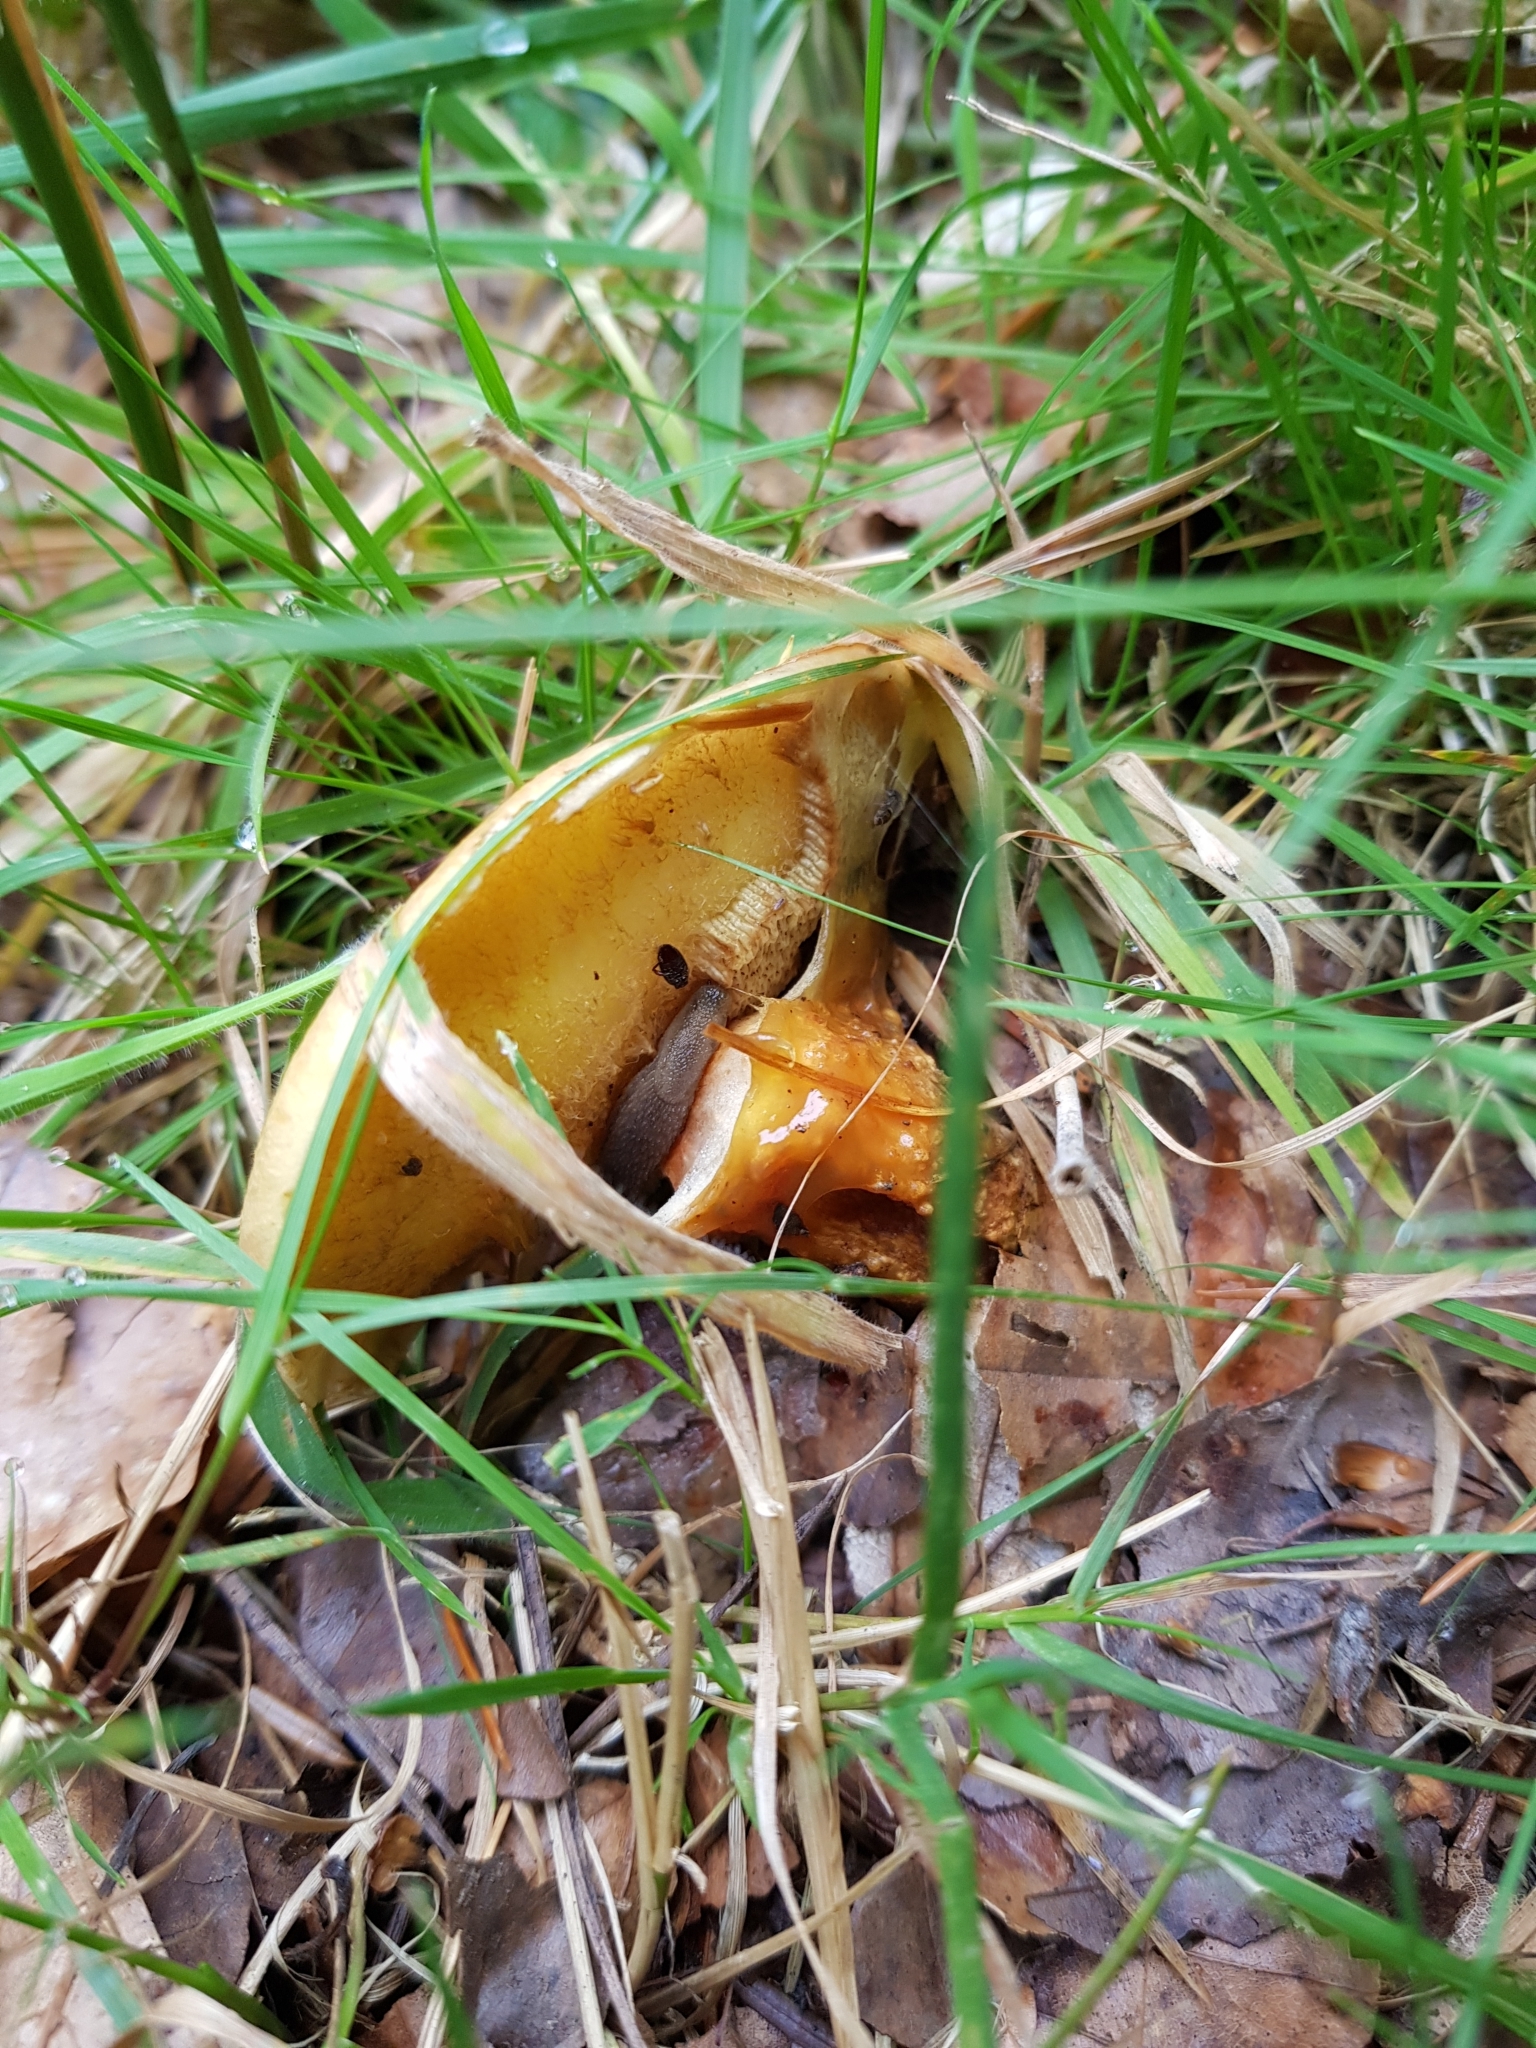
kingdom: Fungi
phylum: Basidiomycota
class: Agaricomycetes
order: Boletales
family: Suillaceae
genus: Suillus
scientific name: Suillus grevillei
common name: Larch bolete
